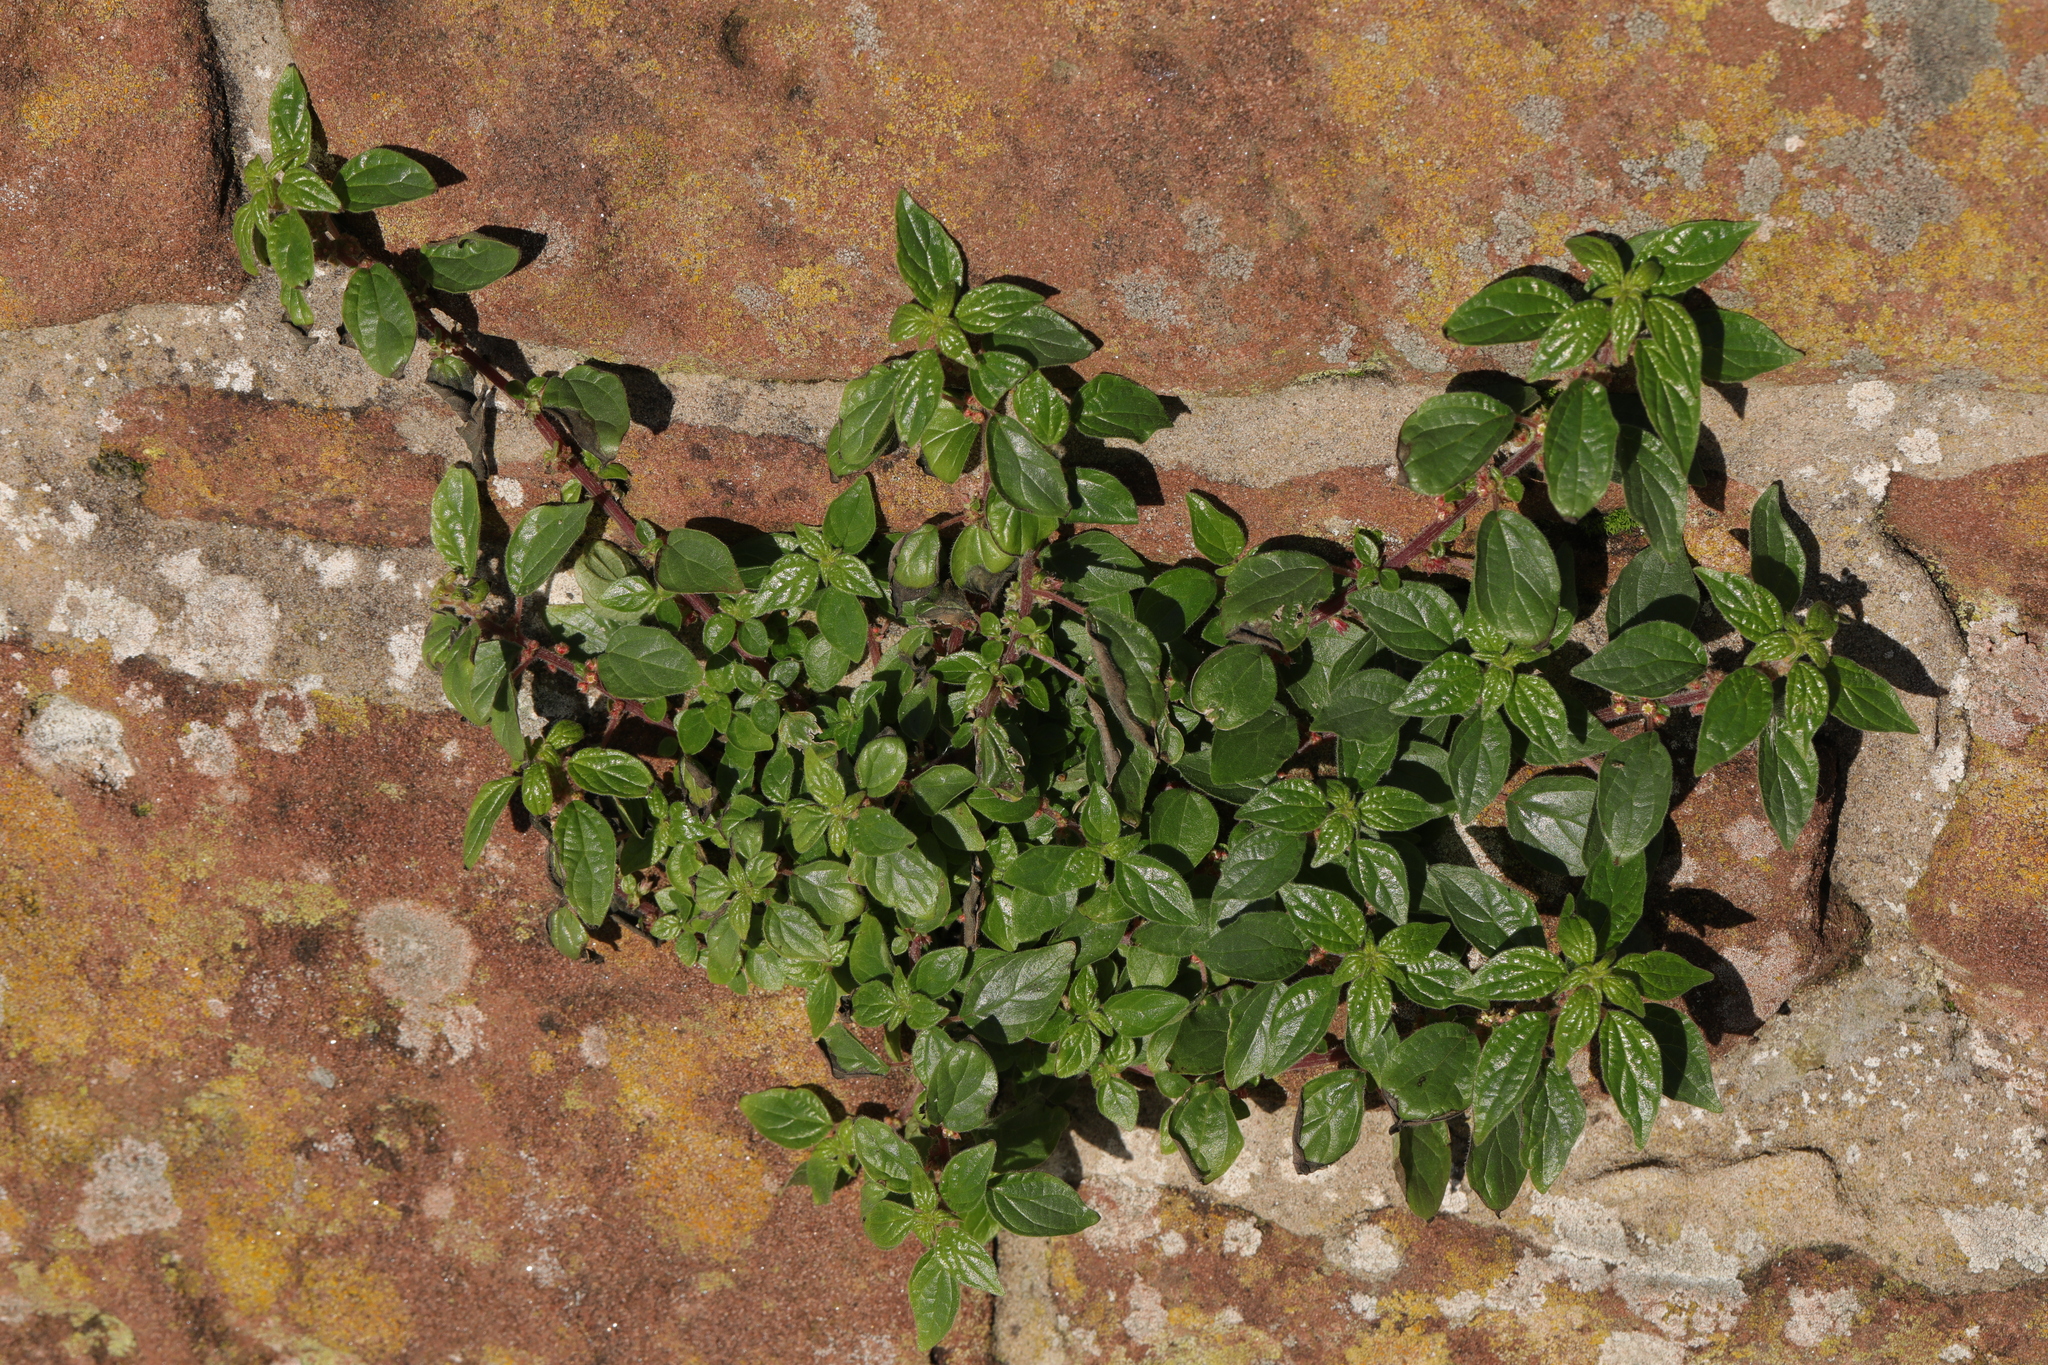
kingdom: Plantae
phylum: Tracheophyta
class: Magnoliopsida
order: Rosales
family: Urticaceae
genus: Parietaria
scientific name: Parietaria judaica
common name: Pellitory-of-the-wall
